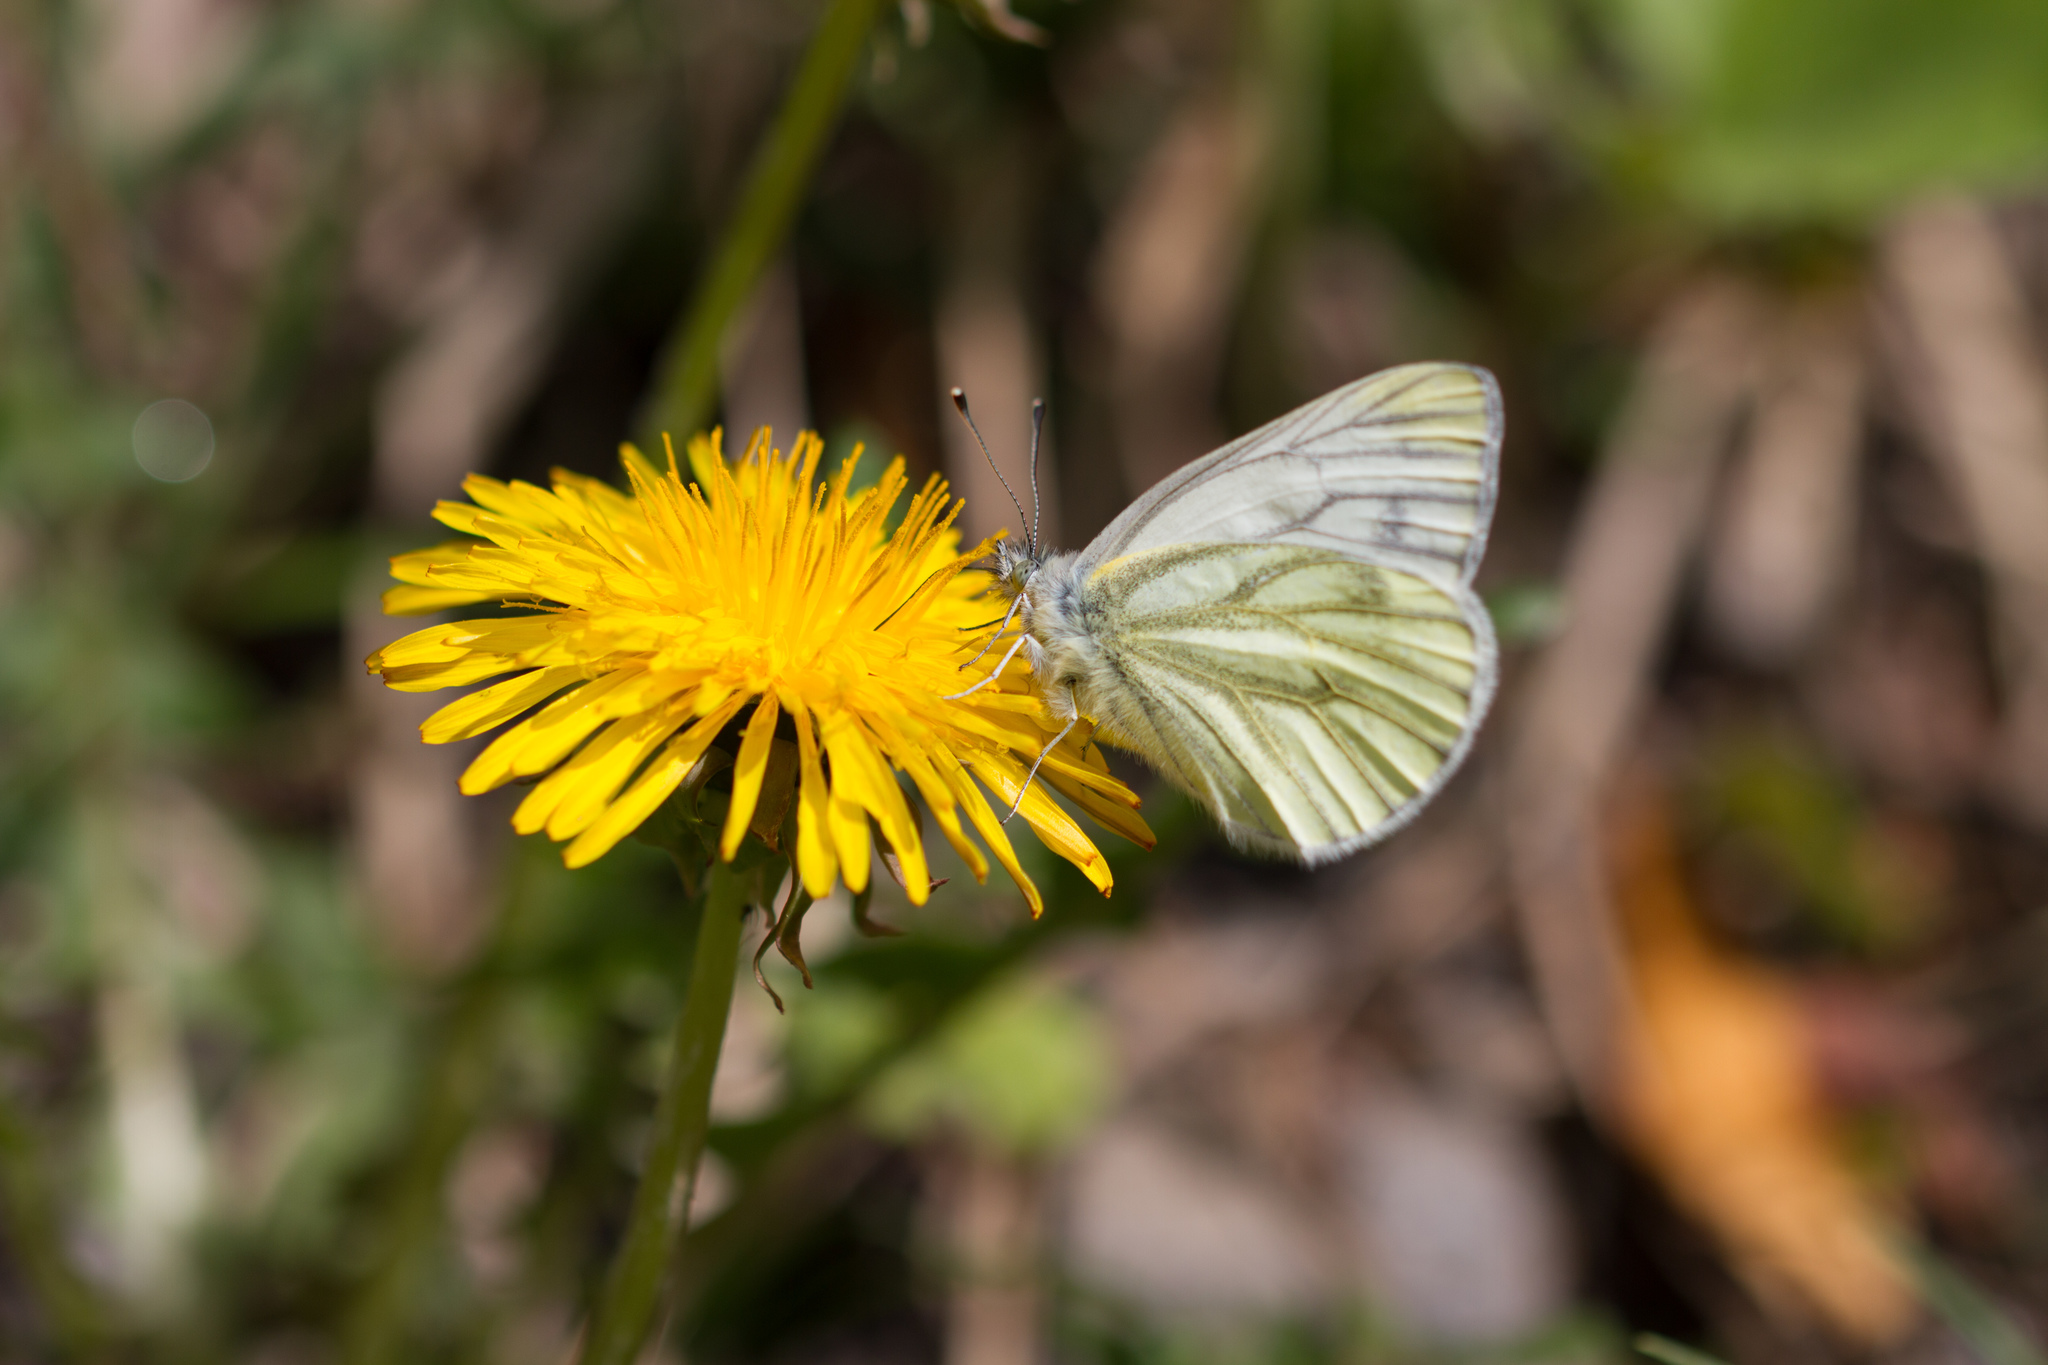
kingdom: Animalia
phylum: Arthropoda
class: Insecta
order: Lepidoptera
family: Pieridae
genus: Pieris
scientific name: Pieris napi
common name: Green-veined white
